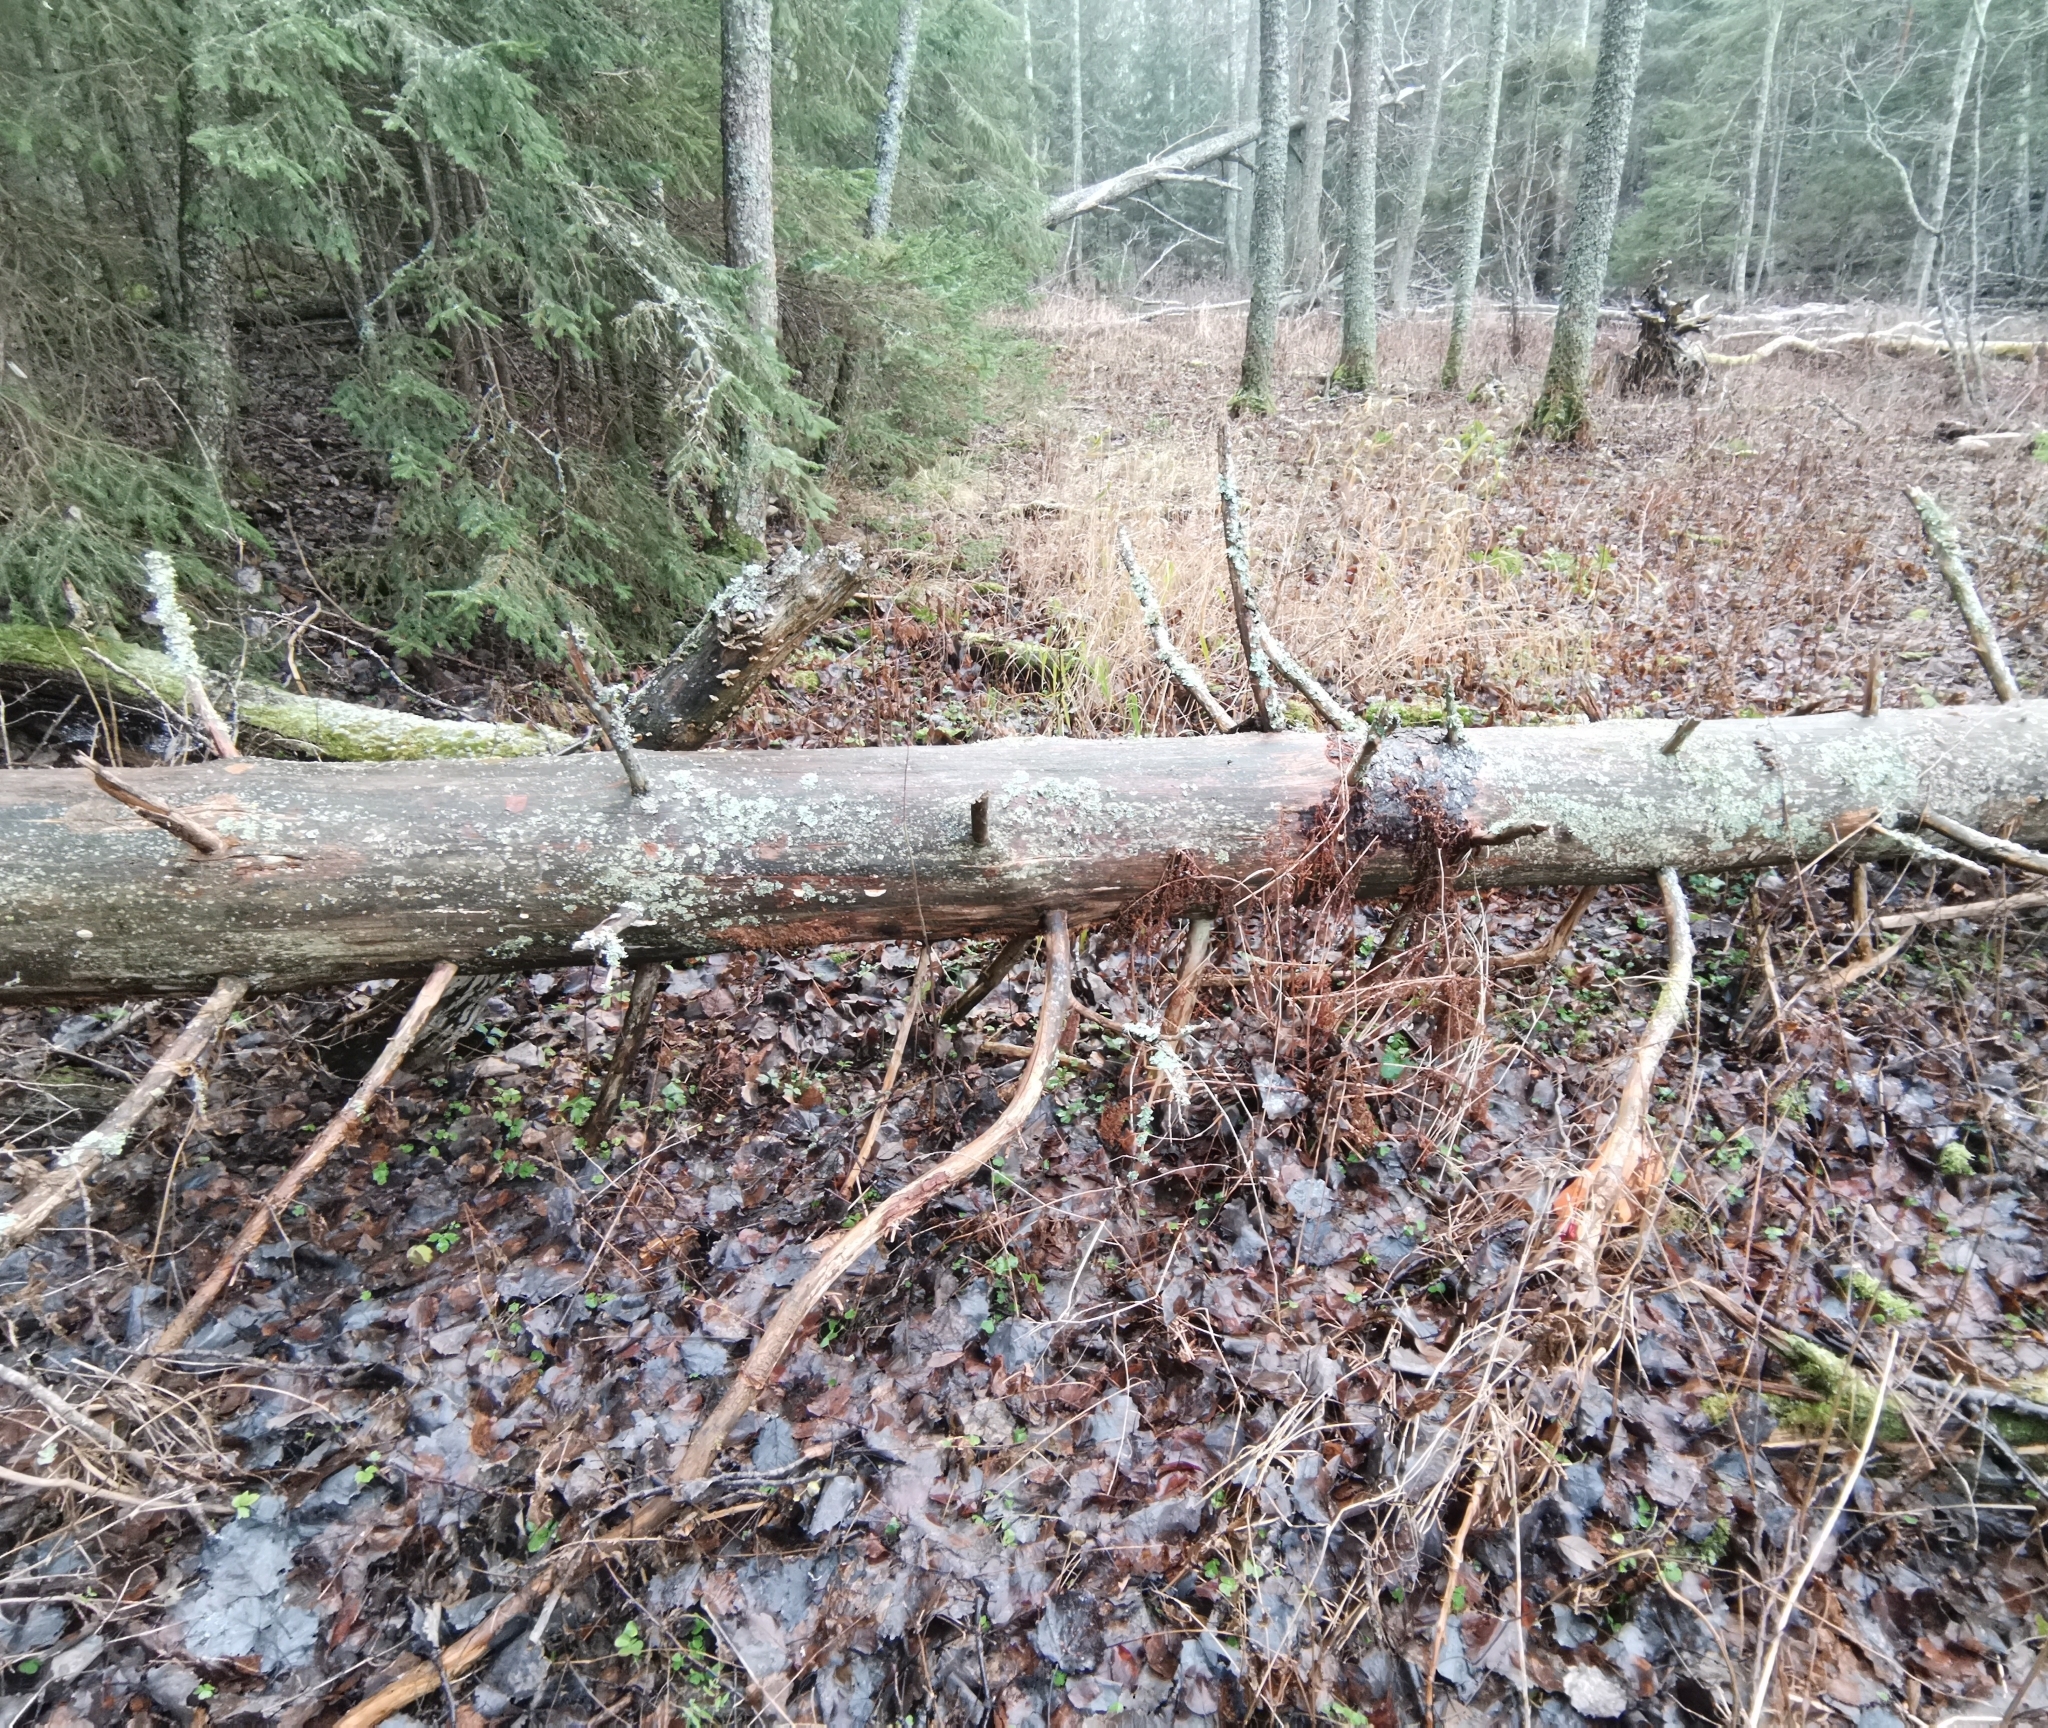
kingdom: Fungi
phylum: Basidiomycota
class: Agaricomycetes
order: Polyporales
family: Fomitopsidaceae
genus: Neoantrodia
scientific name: Neoantrodia serialis
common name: Serried porecrust
